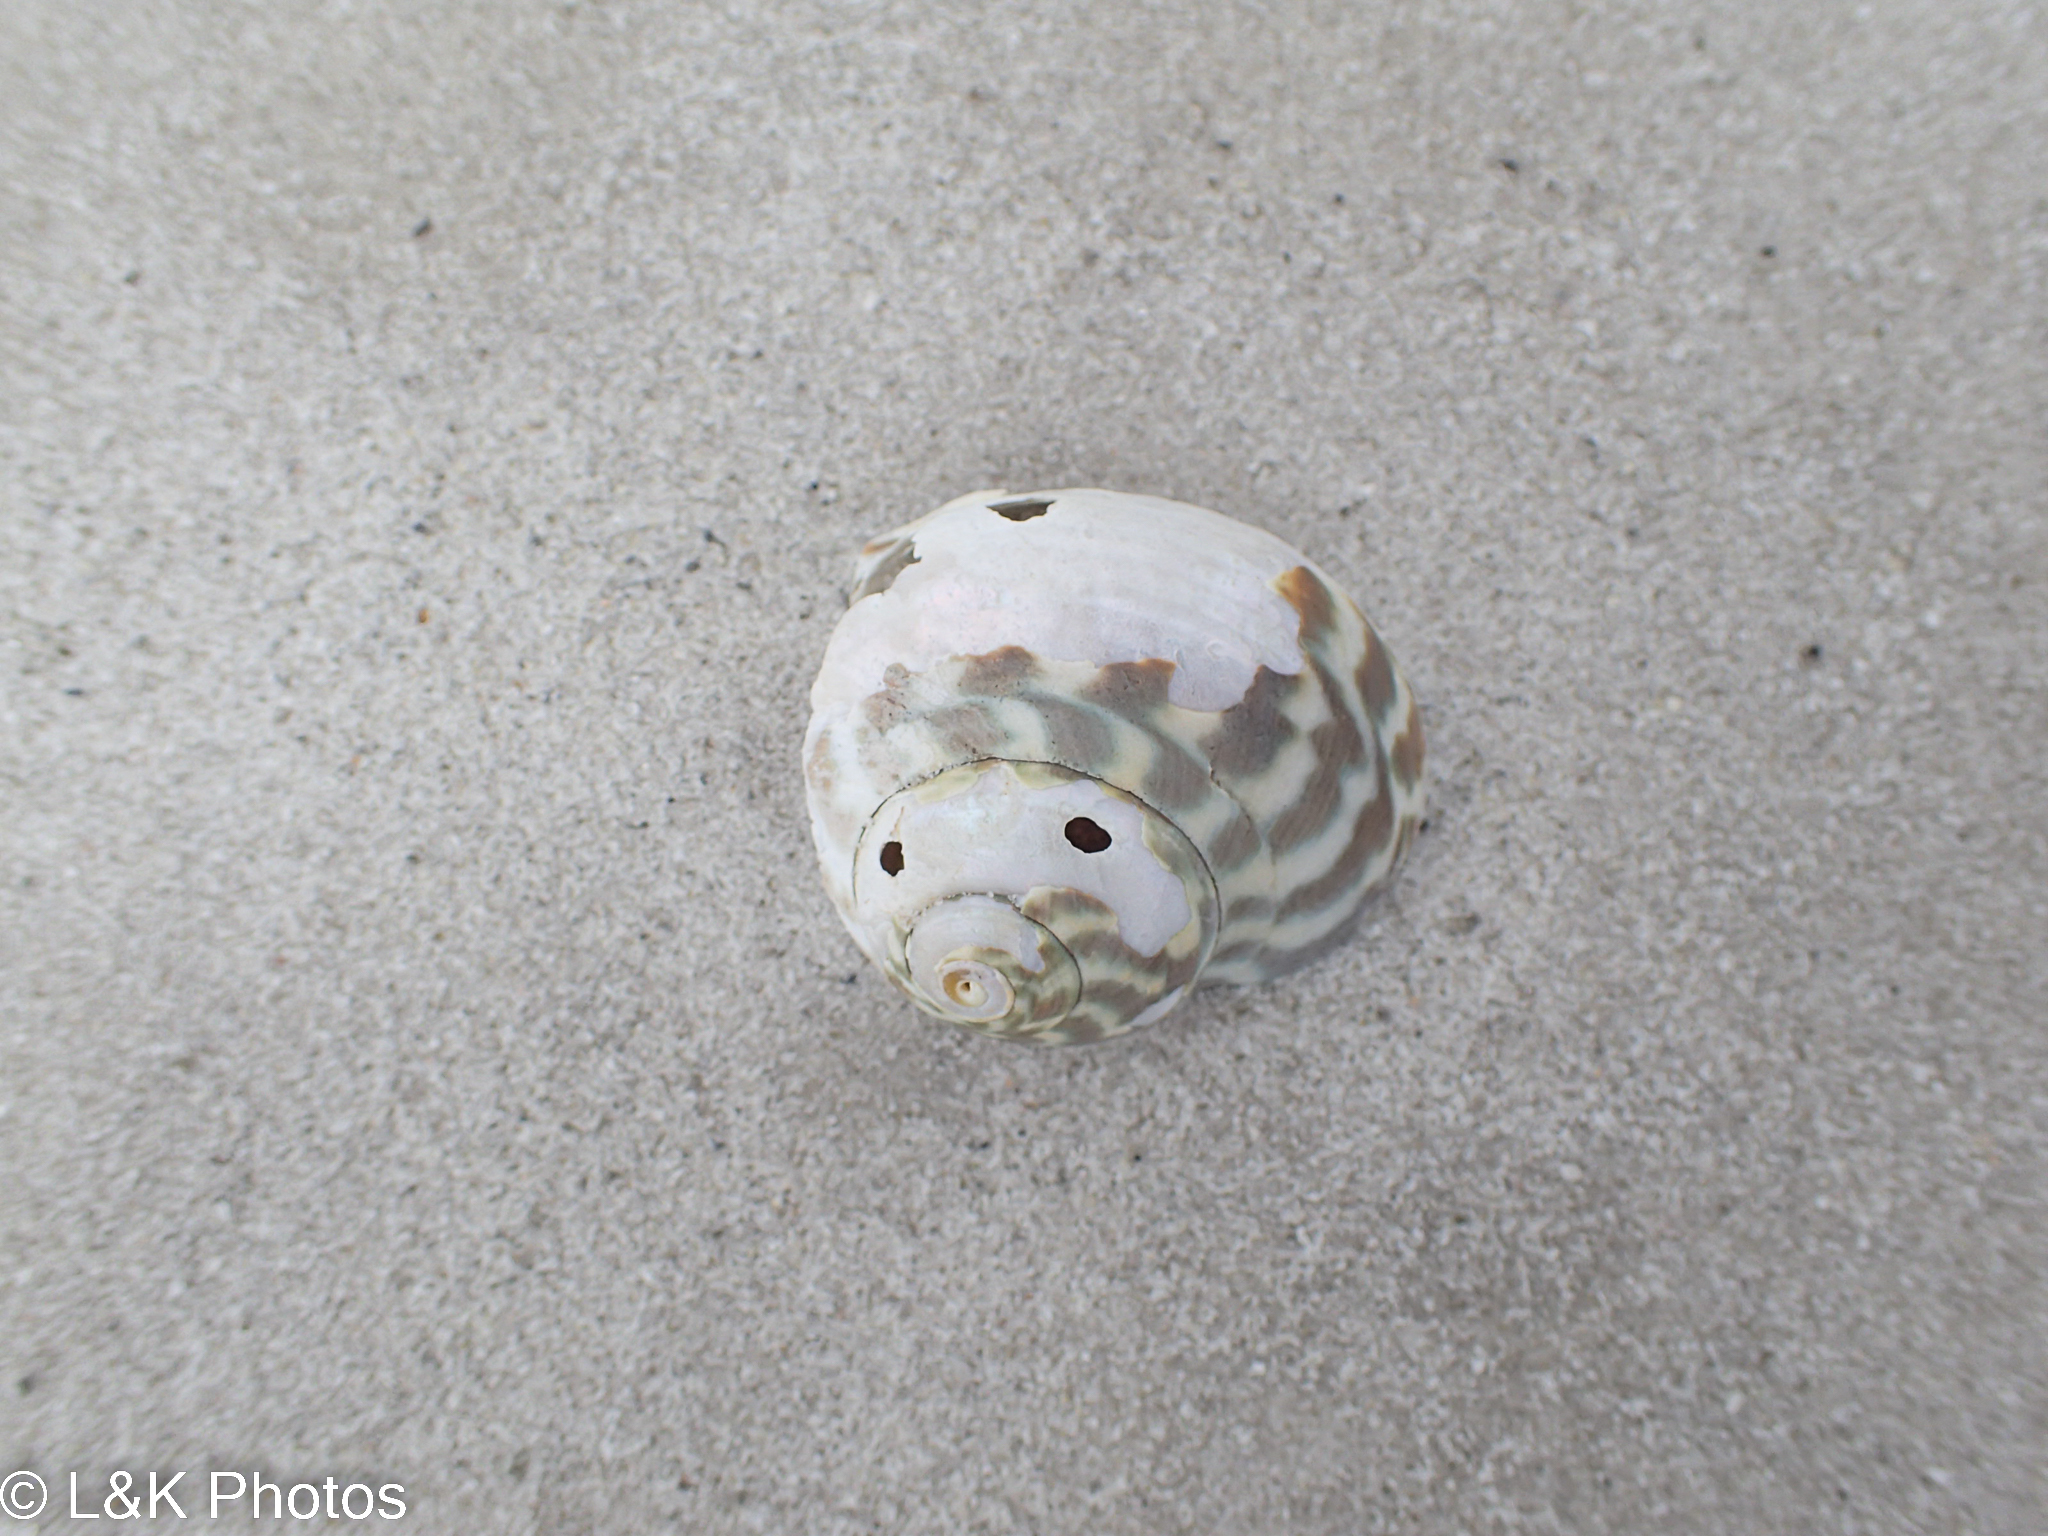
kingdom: Animalia
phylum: Mollusca
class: Gastropoda
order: Trochida
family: Turbinidae
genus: Lunella
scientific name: Lunella undulata
